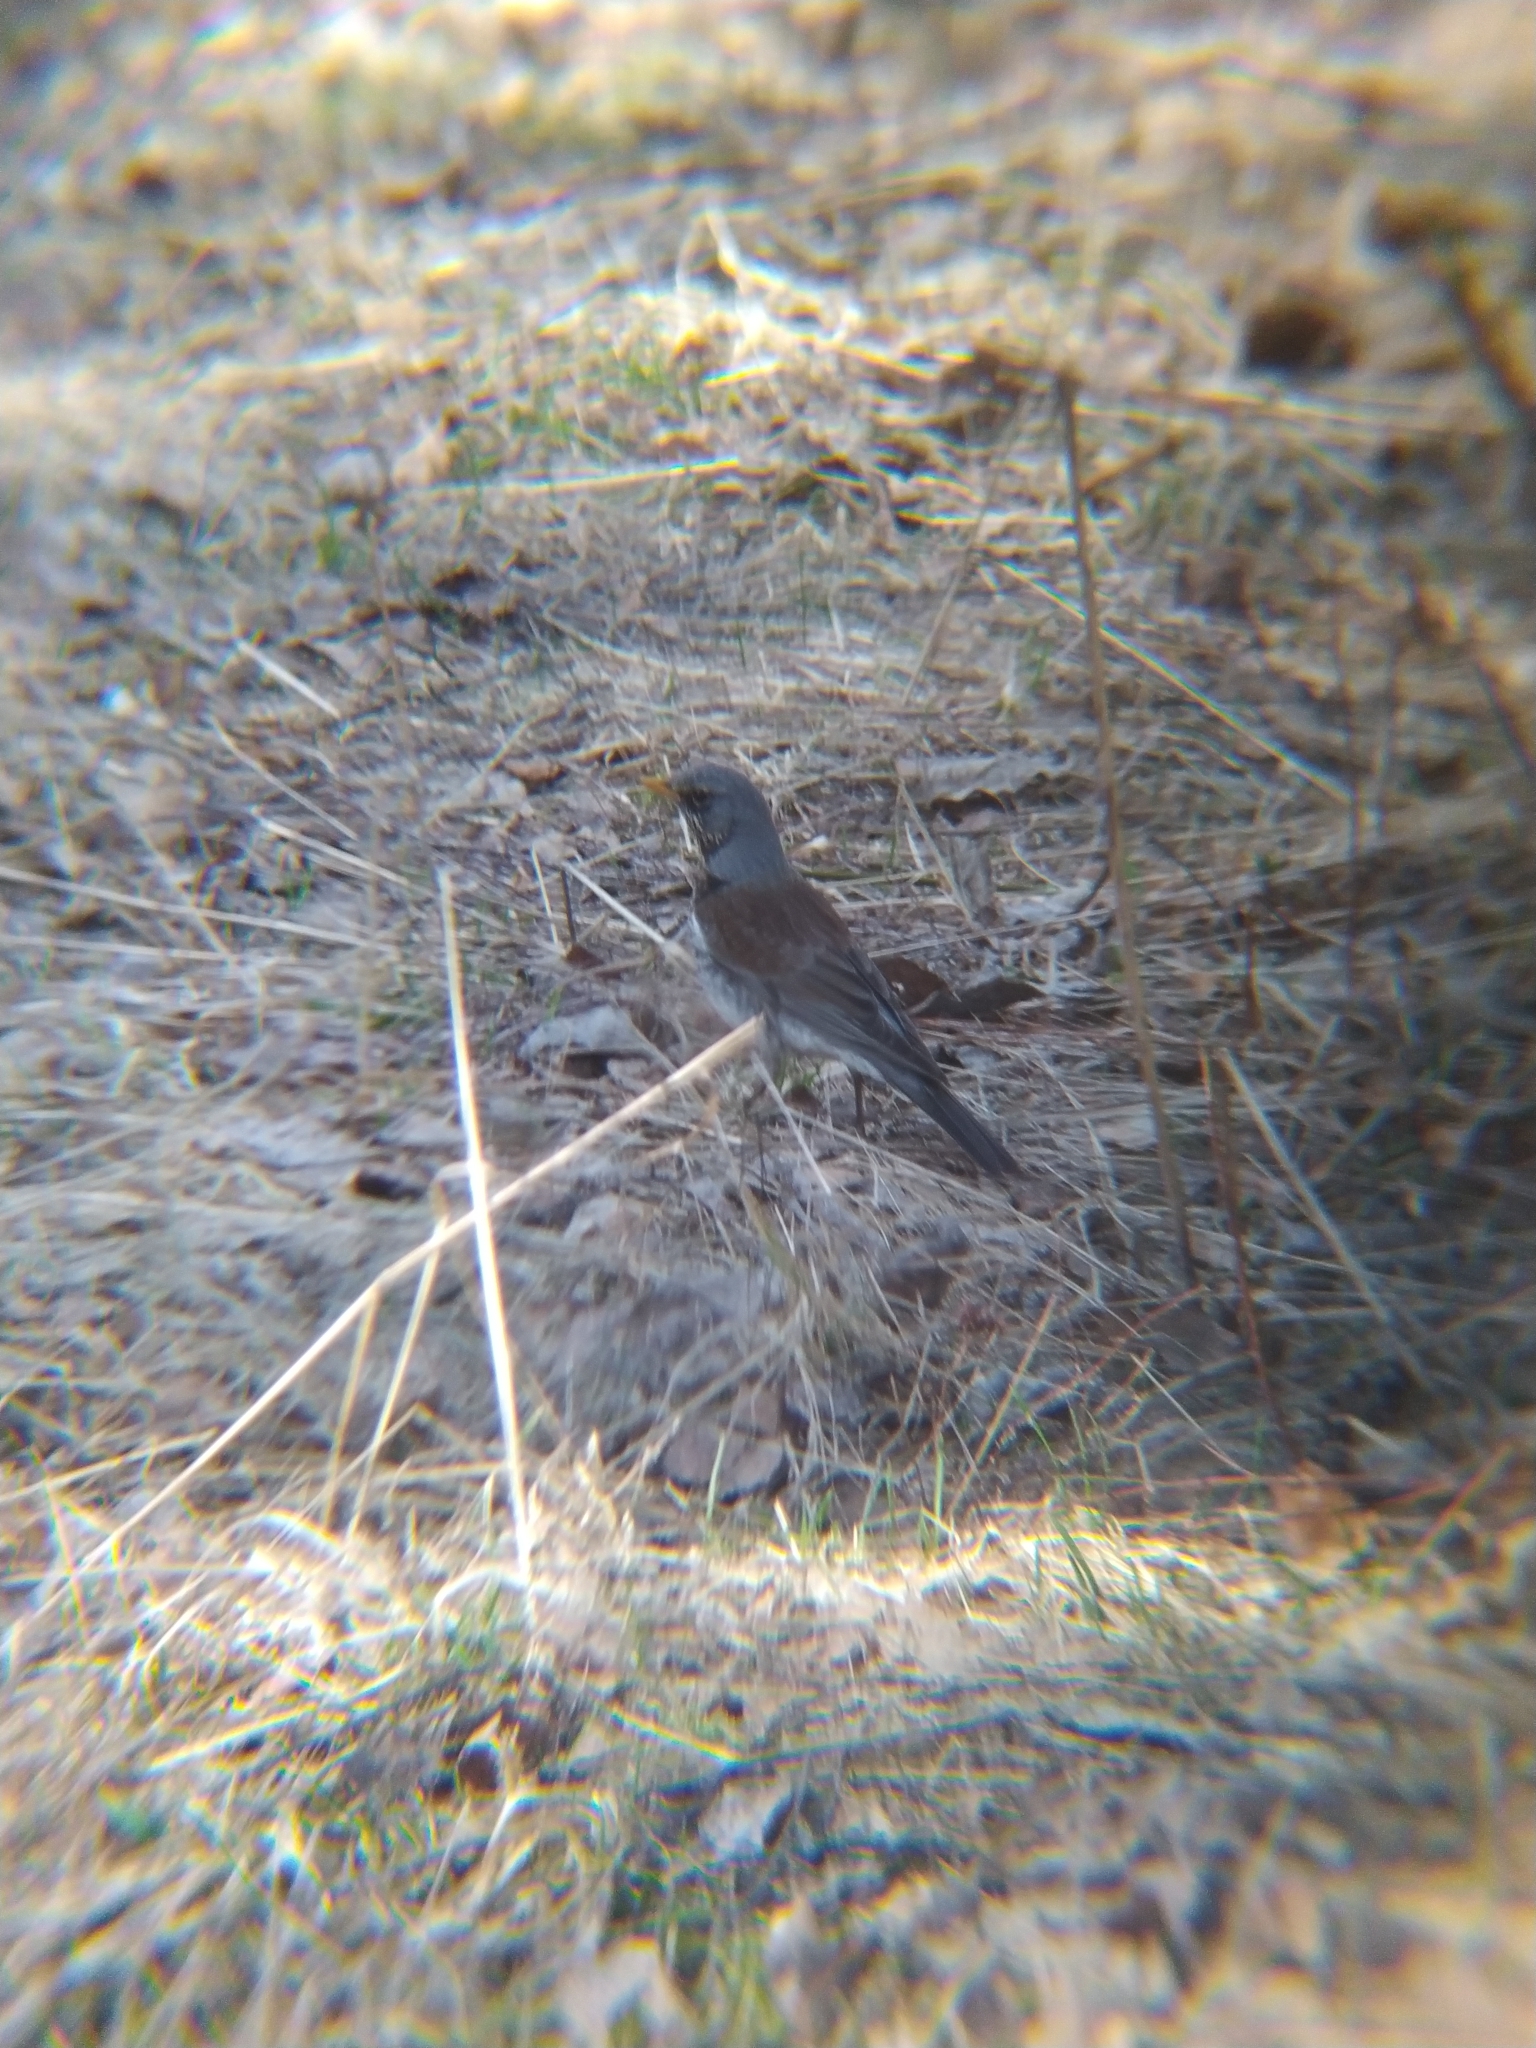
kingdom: Animalia
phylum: Chordata
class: Aves
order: Passeriformes
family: Turdidae
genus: Turdus
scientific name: Turdus pilaris
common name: Fieldfare
